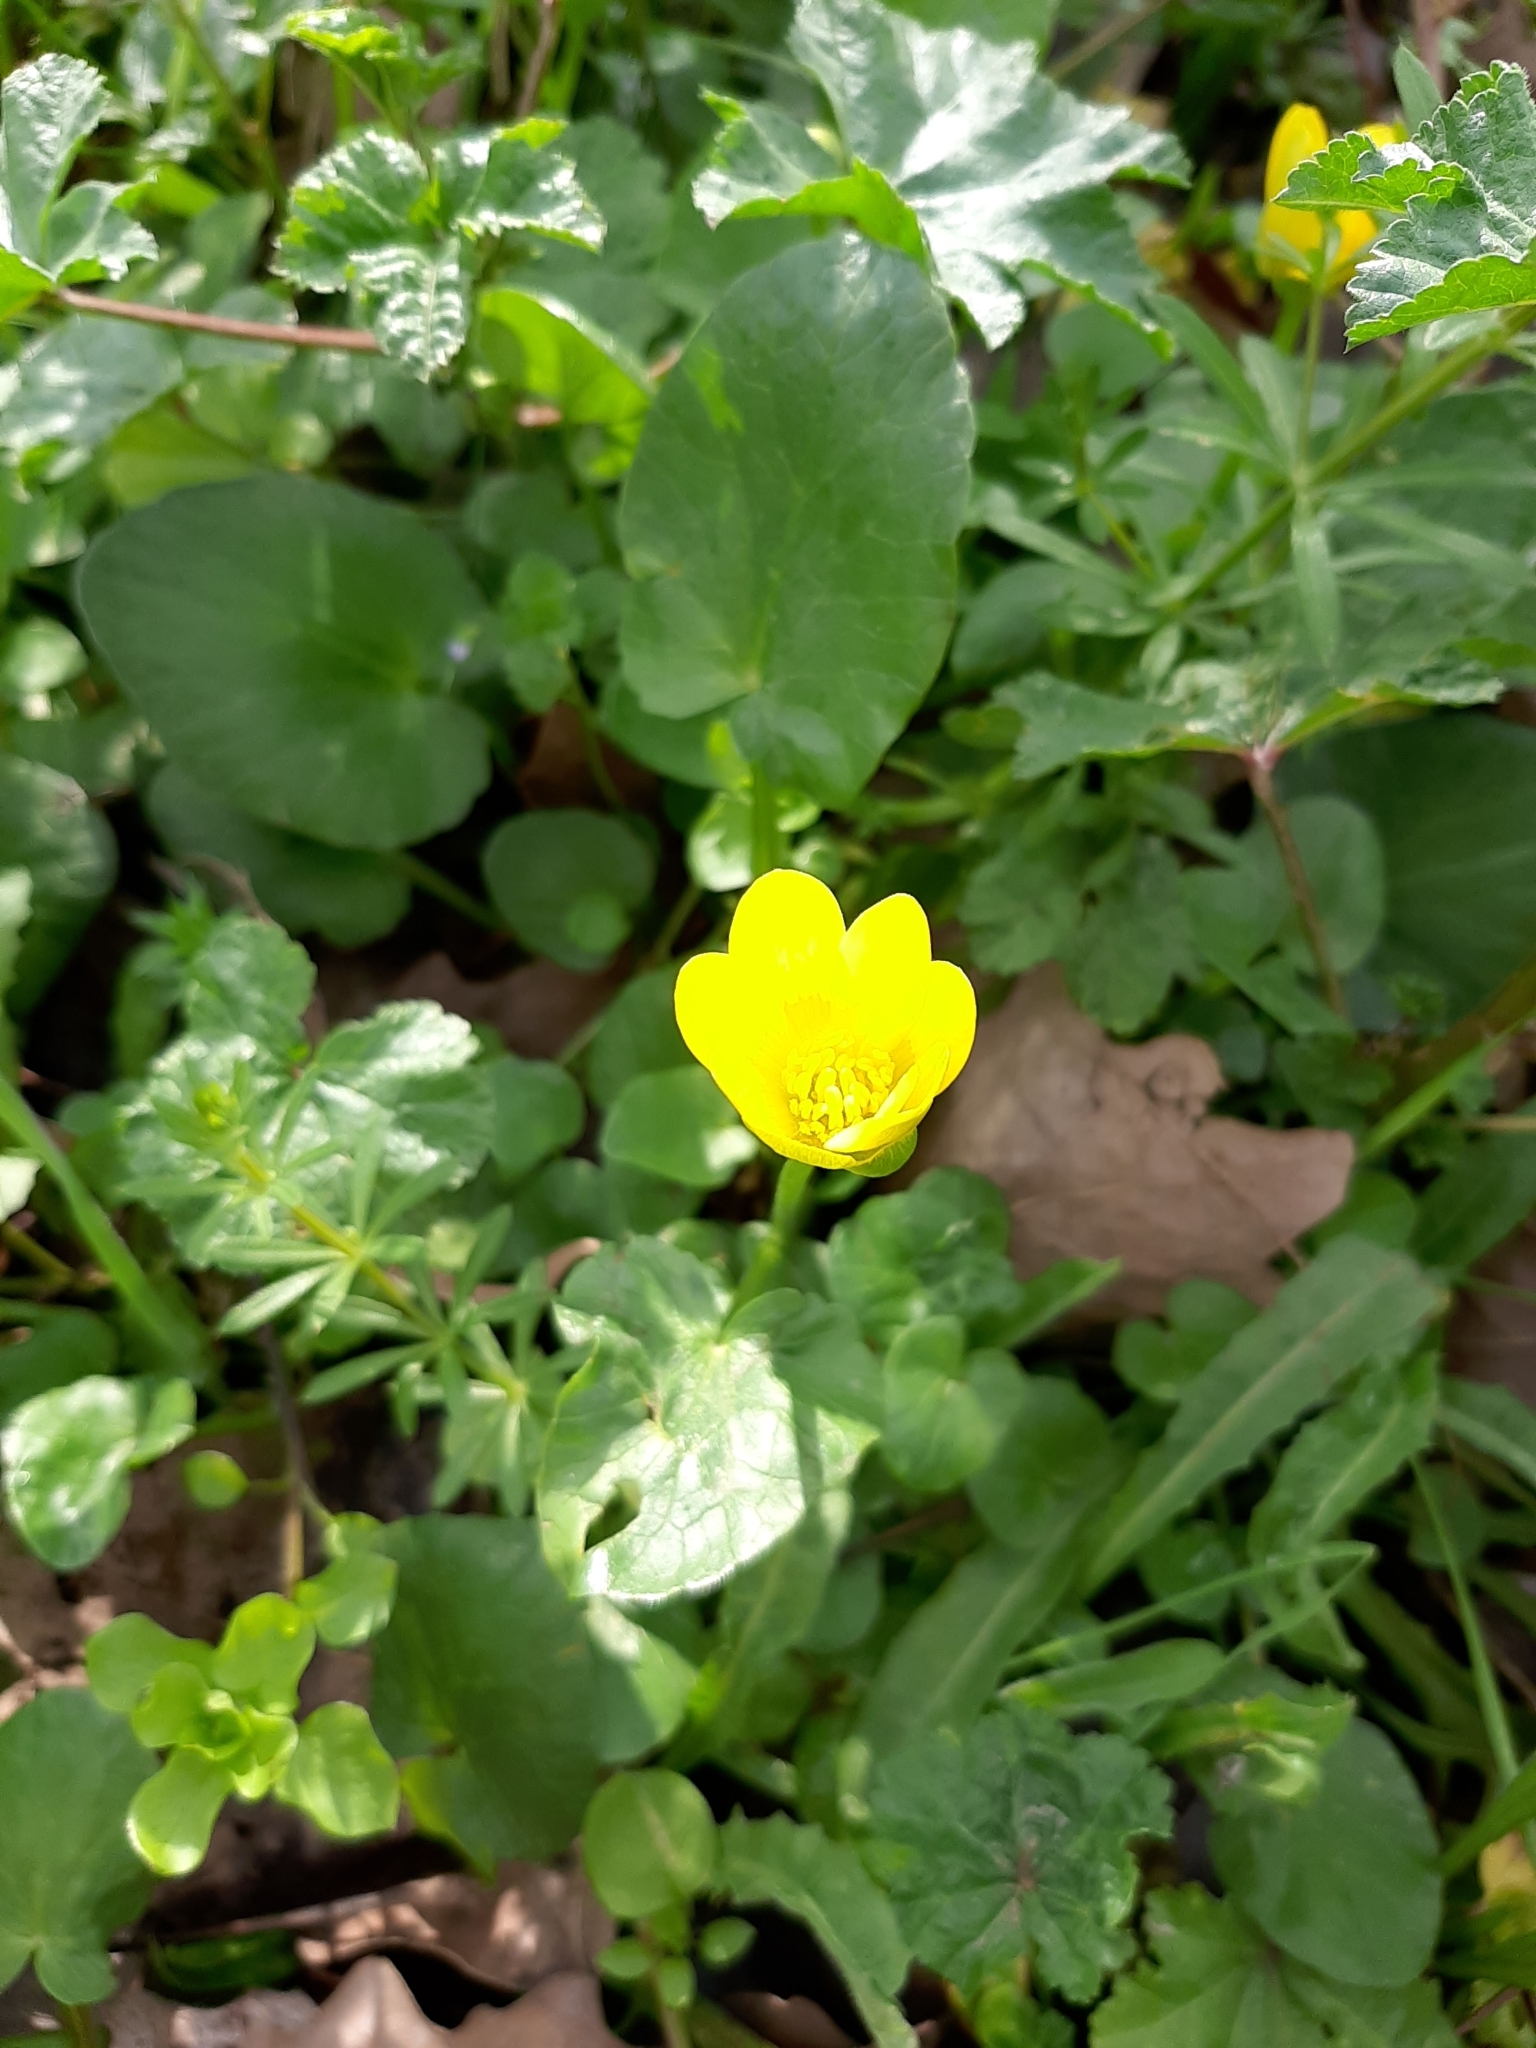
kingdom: Plantae
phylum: Tracheophyta
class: Magnoliopsida
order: Ranunculales
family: Ranunculaceae
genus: Ficaria
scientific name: Ficaria verna
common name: Lesser celandine
